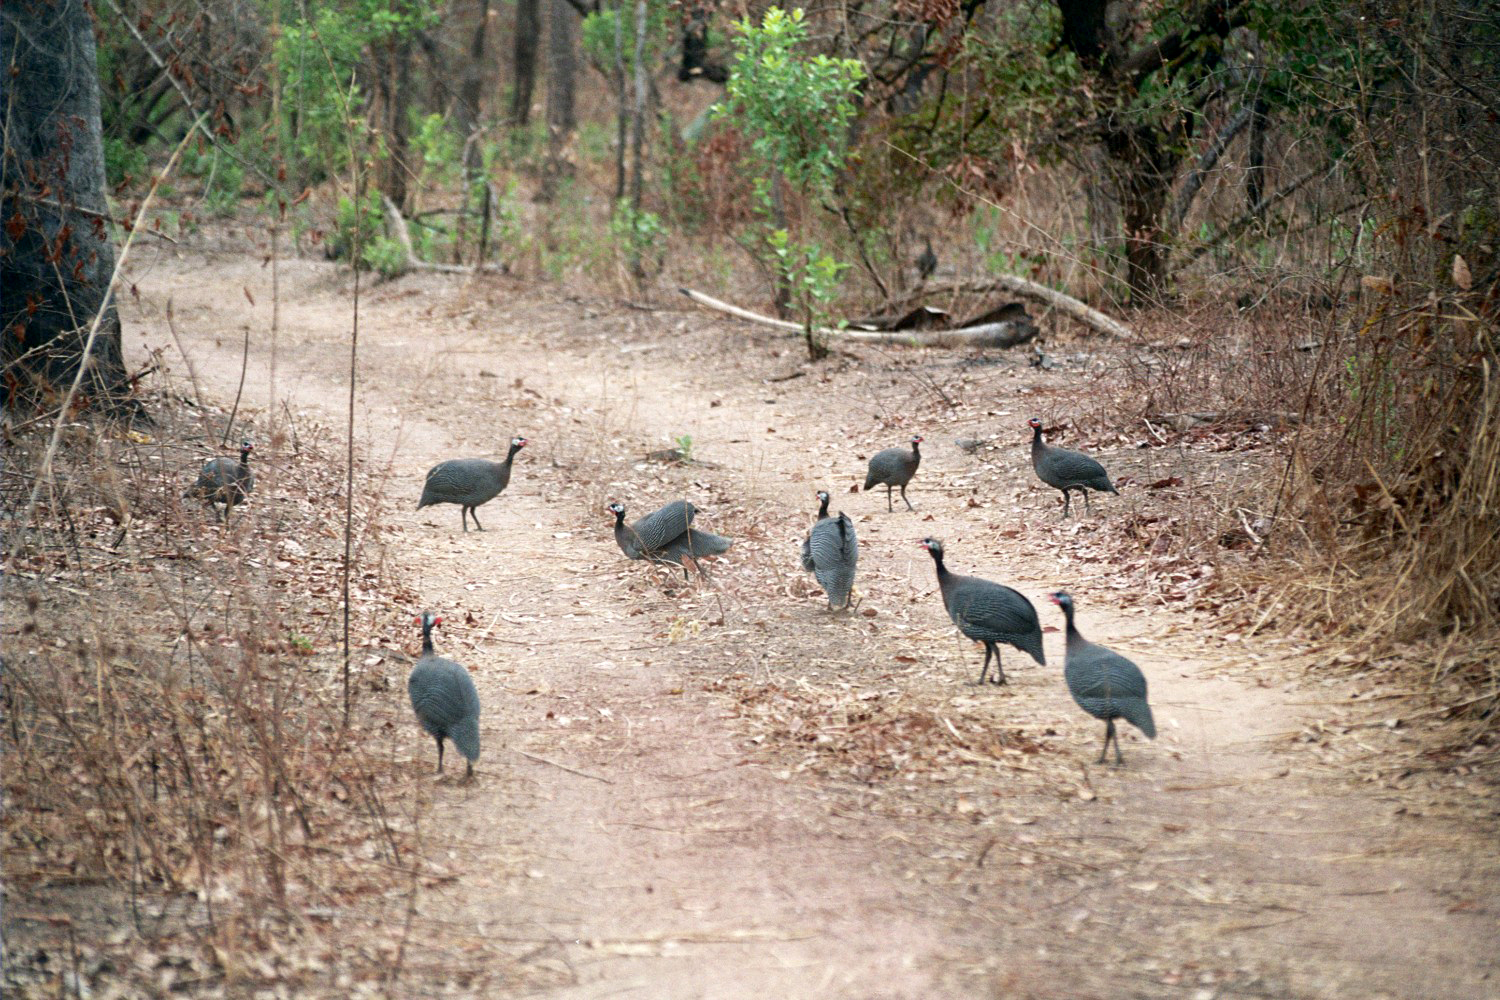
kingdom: Animalia
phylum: Chordata
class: Aves
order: Galliformes
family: Numididae
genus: Numida
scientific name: Numida meleagris
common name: Helmeted guineafowl
